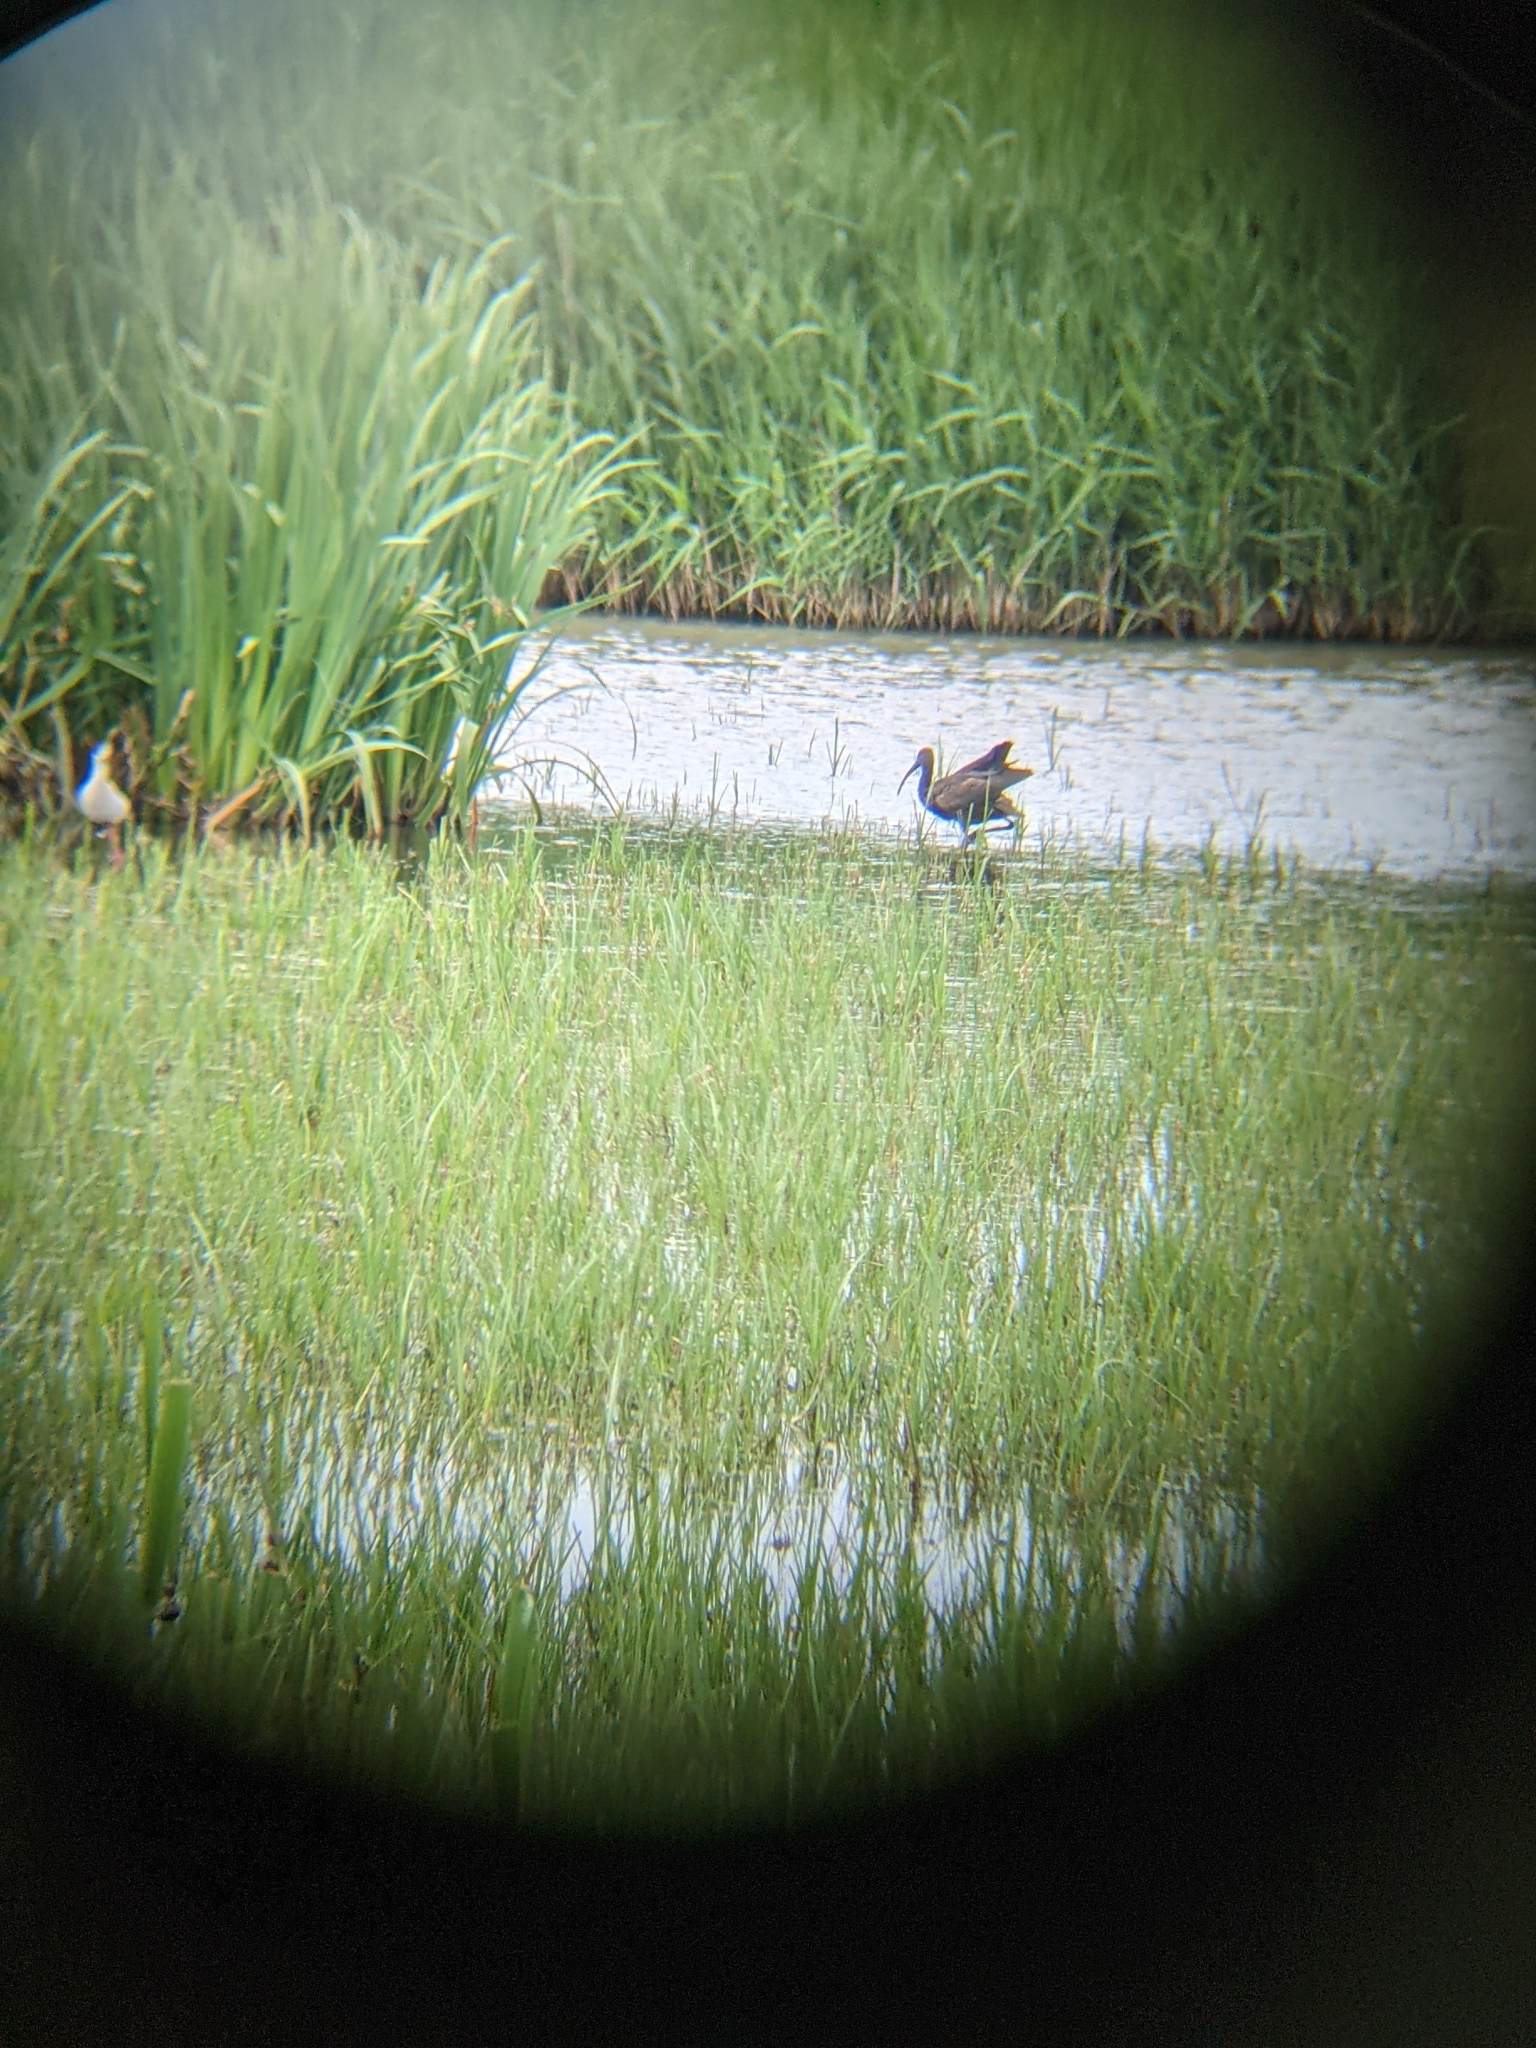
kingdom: Animalia
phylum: Chordata
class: Aves
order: Pelecaniformes
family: Threskiornithidae
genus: Plegadis
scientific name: Plegadis falcinellus
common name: Glossy ibis
